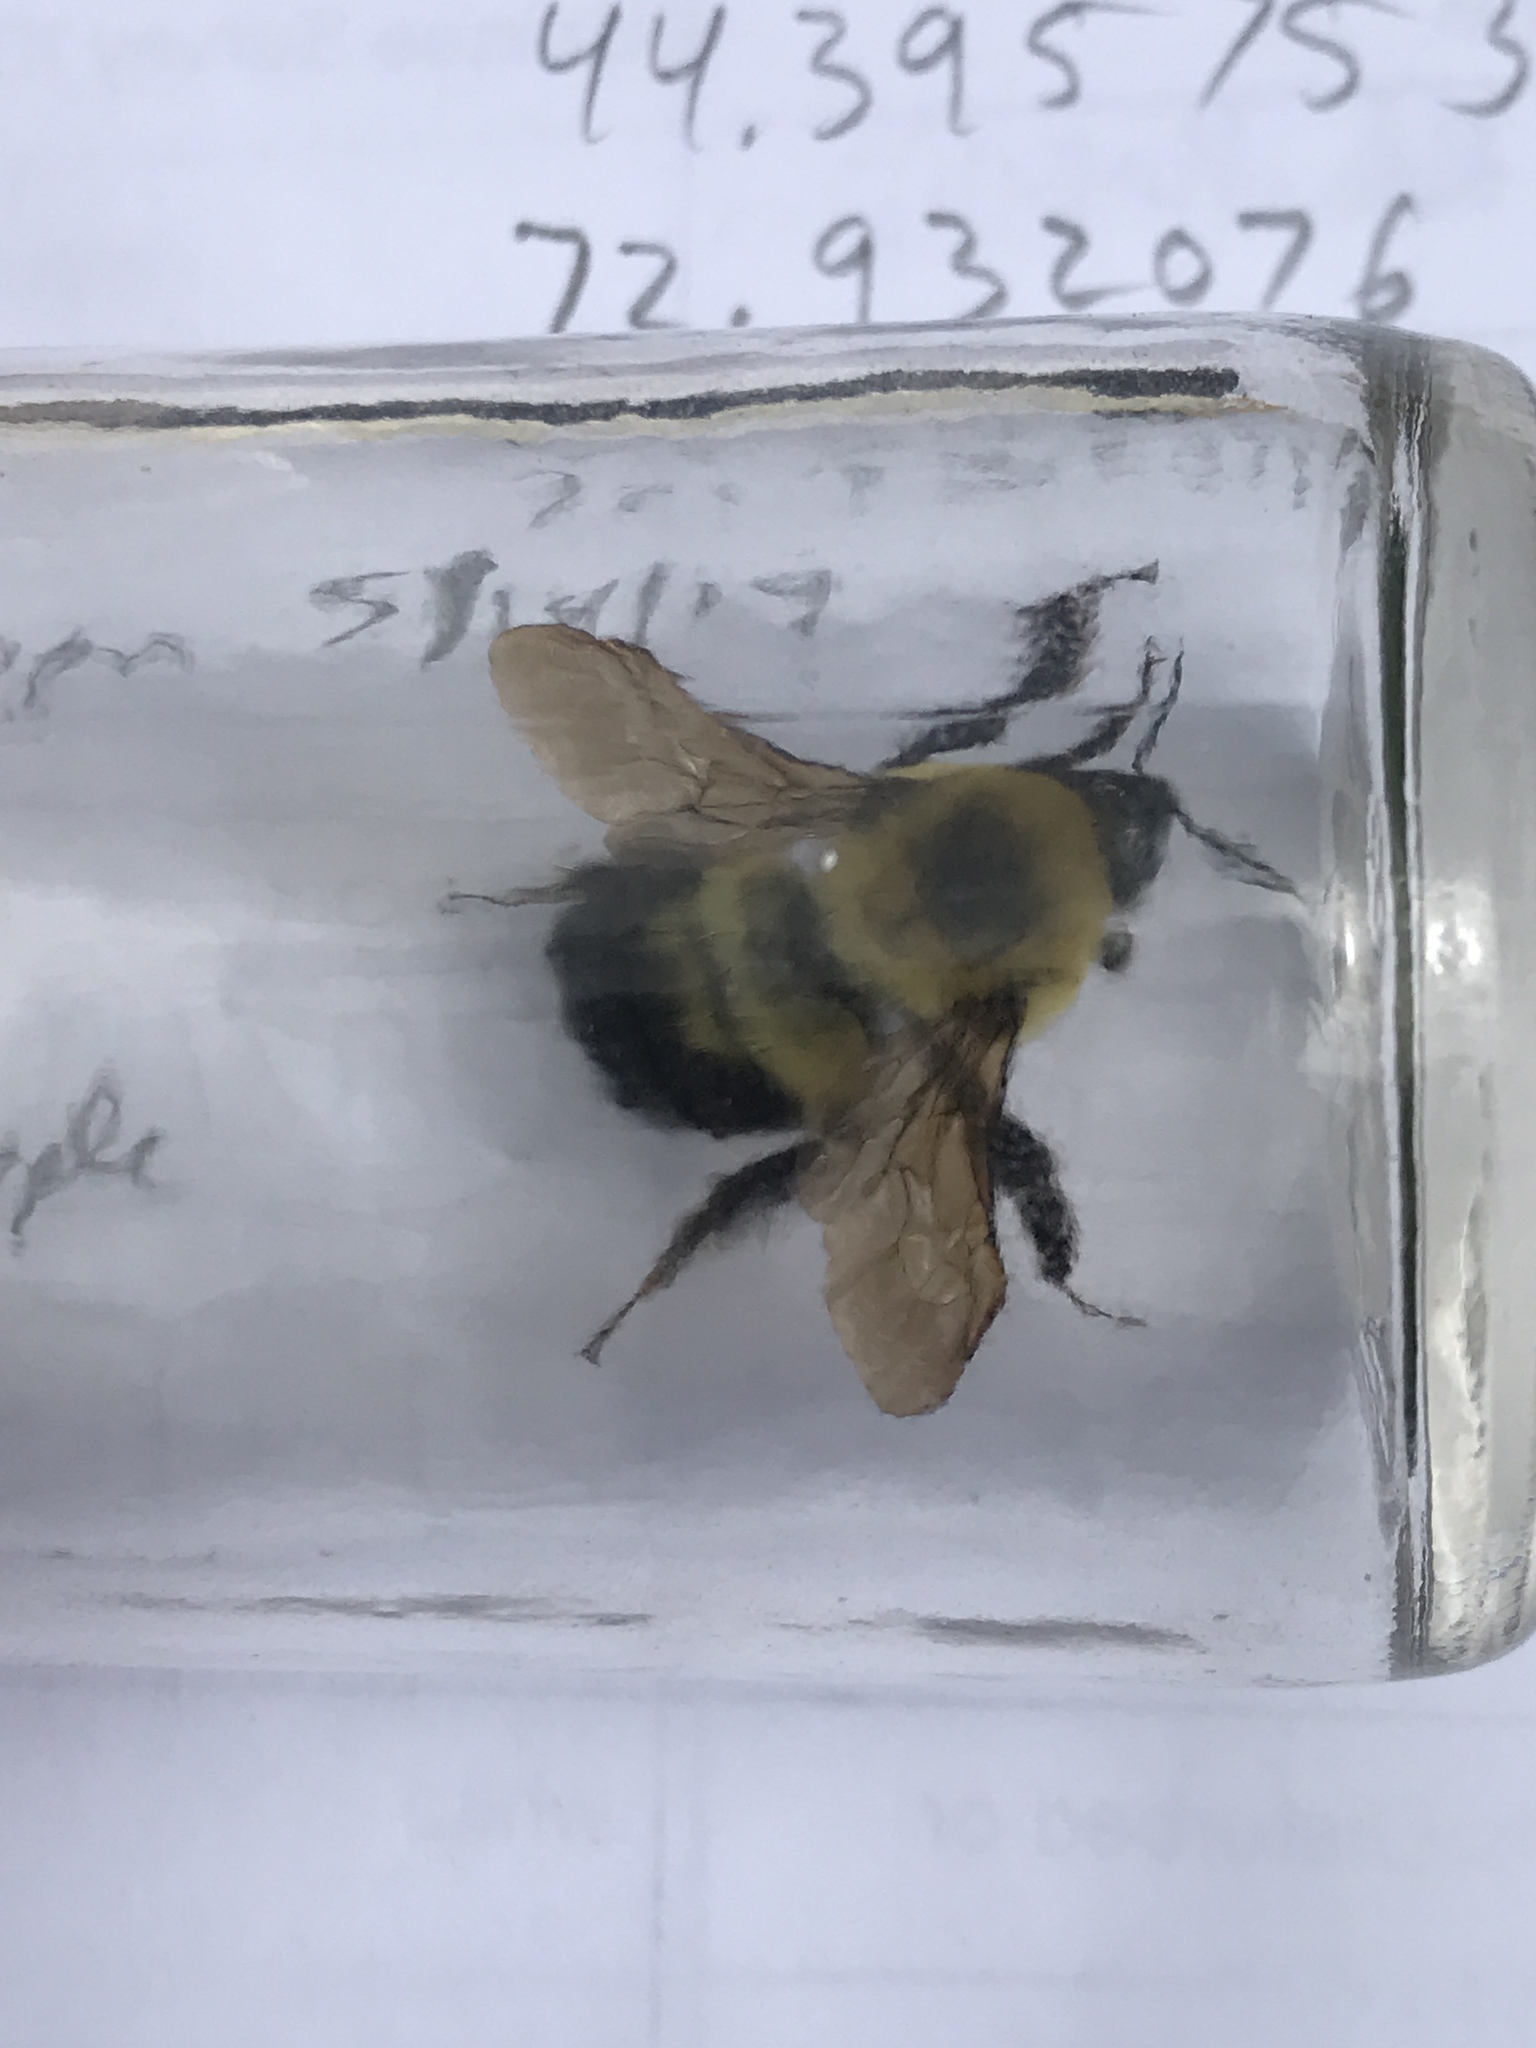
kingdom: Animalia
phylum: Arthropoda
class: Insecta
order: Hymenoptera
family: Apidae
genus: Bombus
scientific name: Bombus bimaculatus
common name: Two-spotted bumble bee
